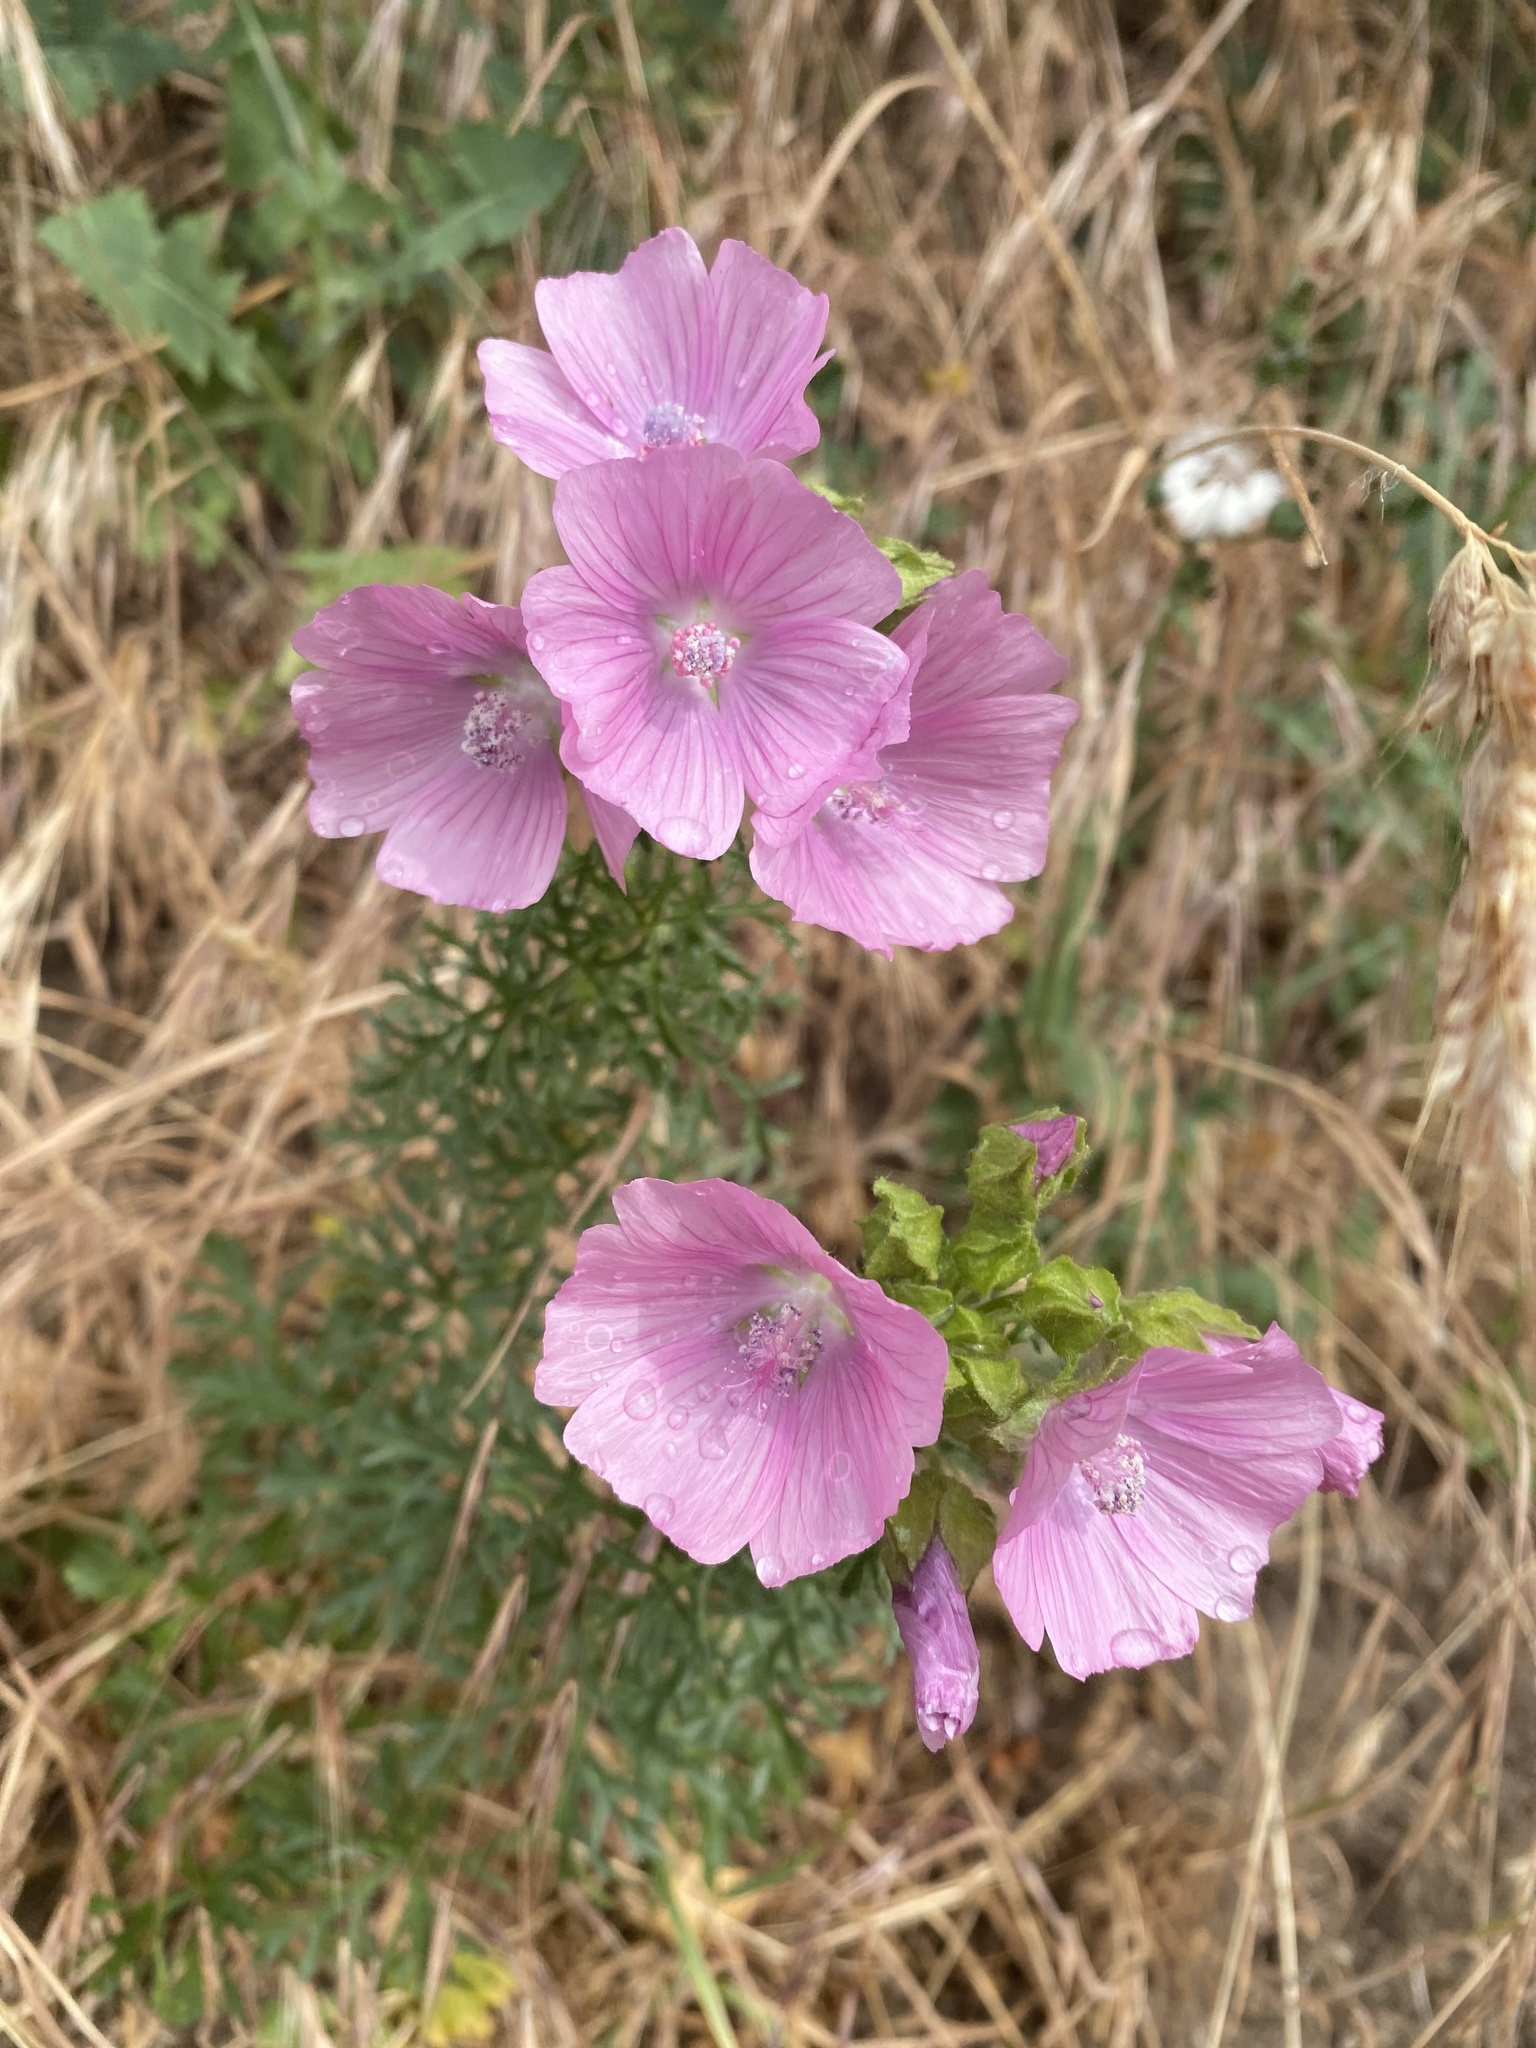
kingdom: Plantae
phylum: Tracheophyta
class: Magnoliopsida
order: Malvales
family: Malvaceae
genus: Malva
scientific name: Malva moschata
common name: Musk mallow
